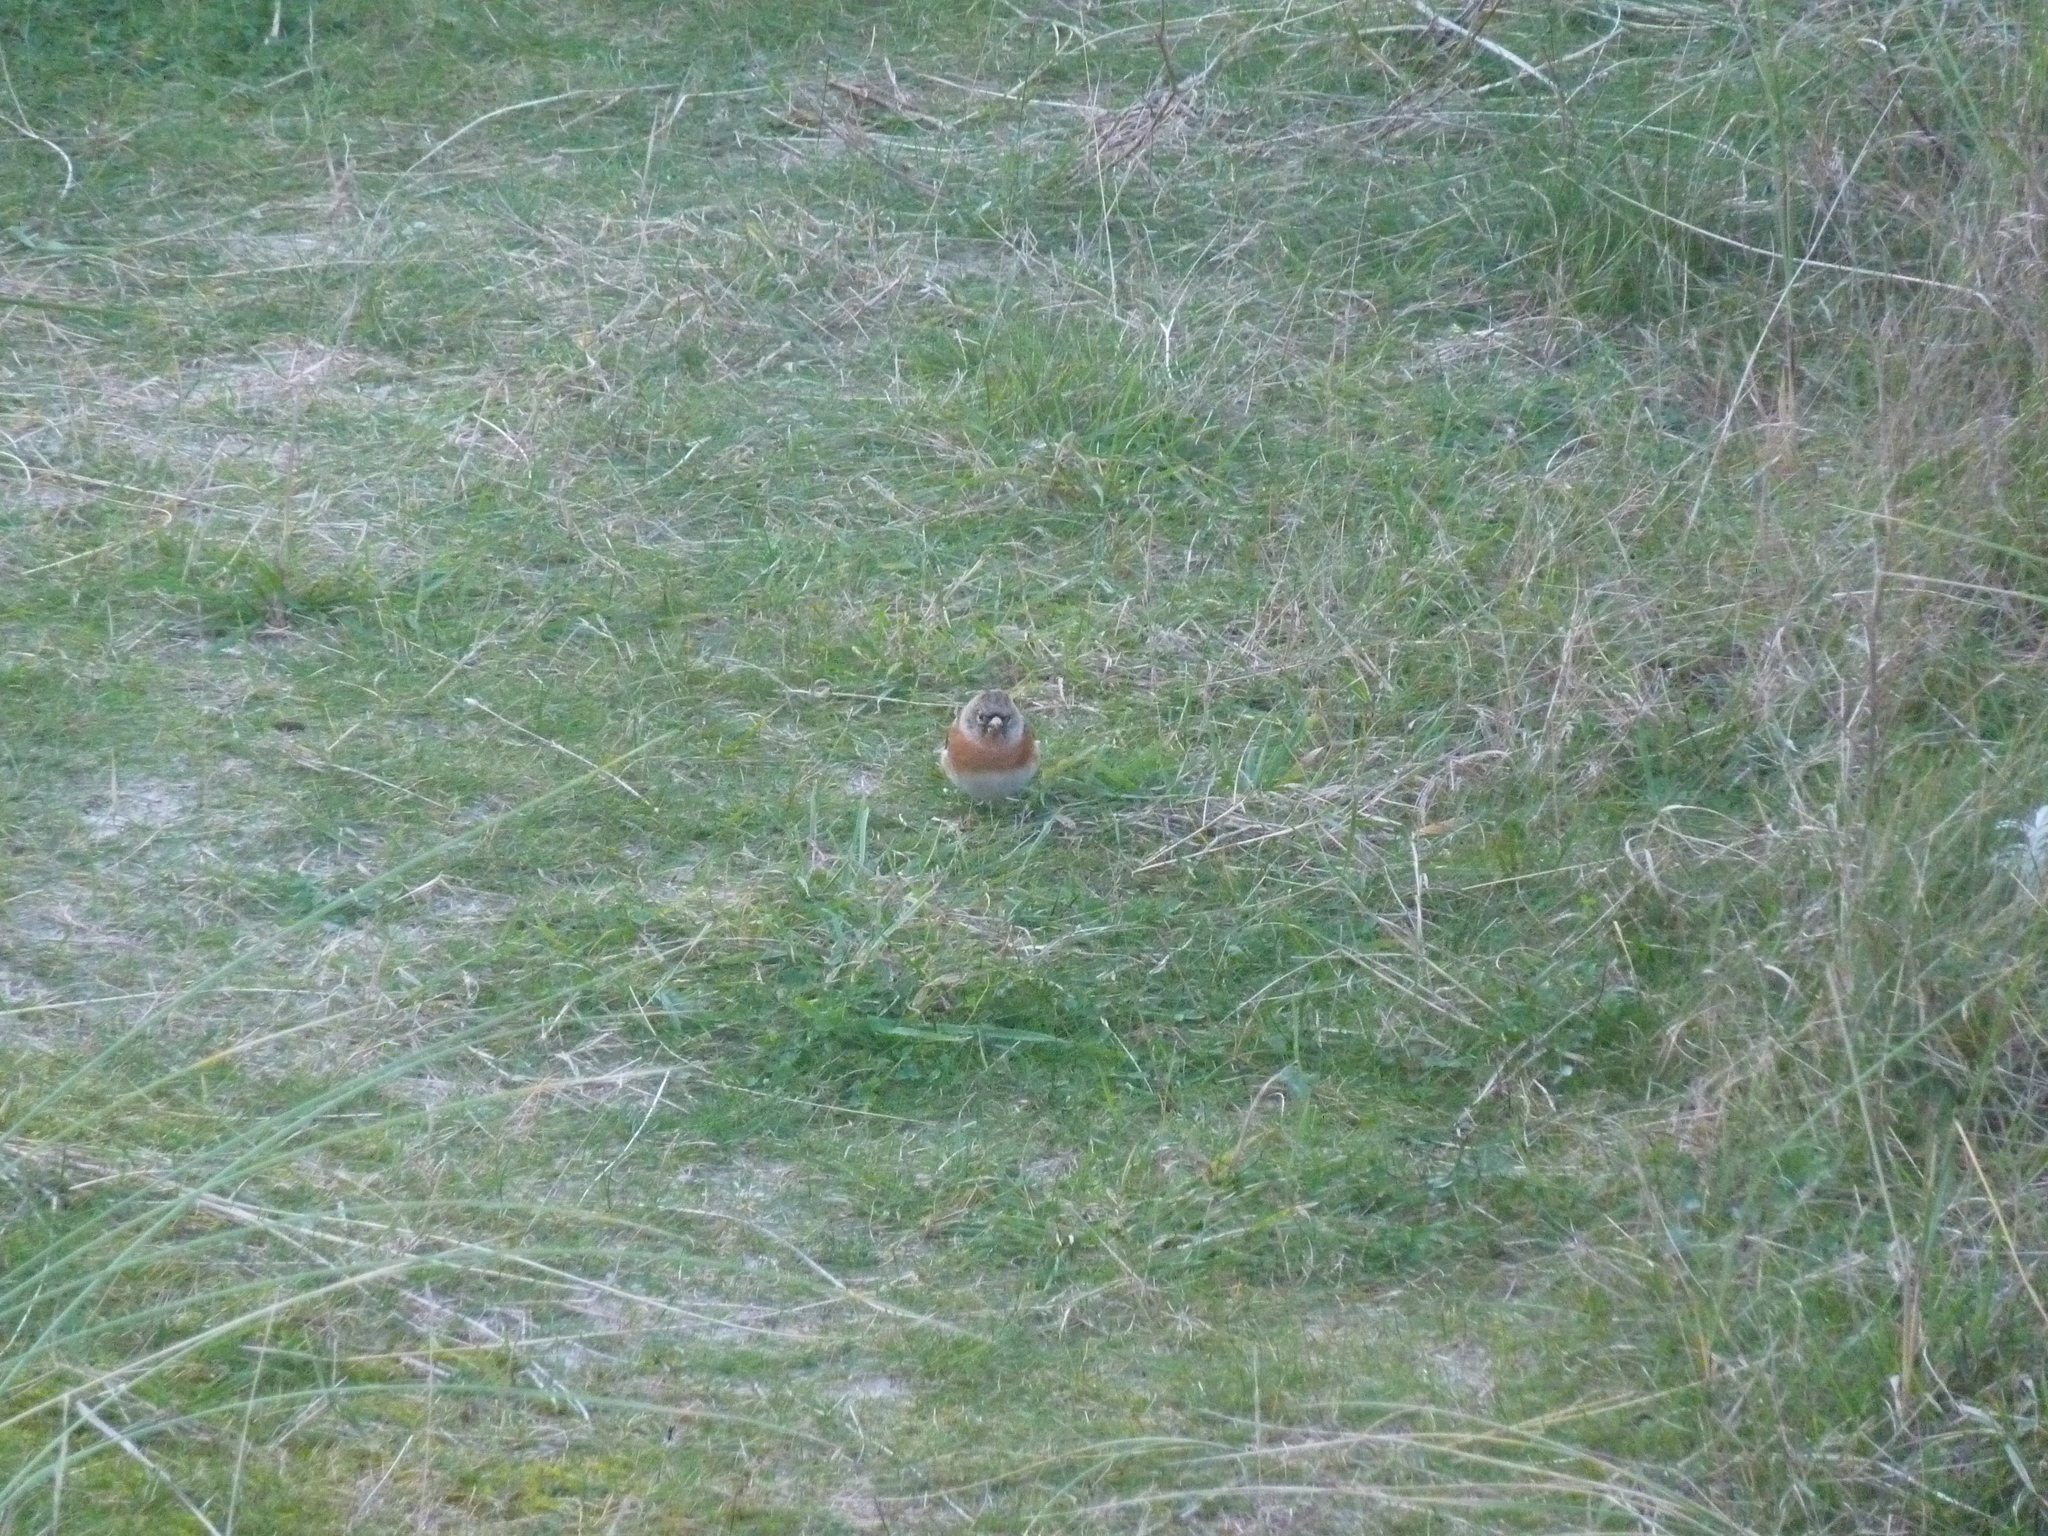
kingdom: Animalia
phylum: Chordata
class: Aves
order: Passeriformes
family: Fringillidae
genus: Fringilla
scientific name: Fringilla montifringilla
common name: Brambling
